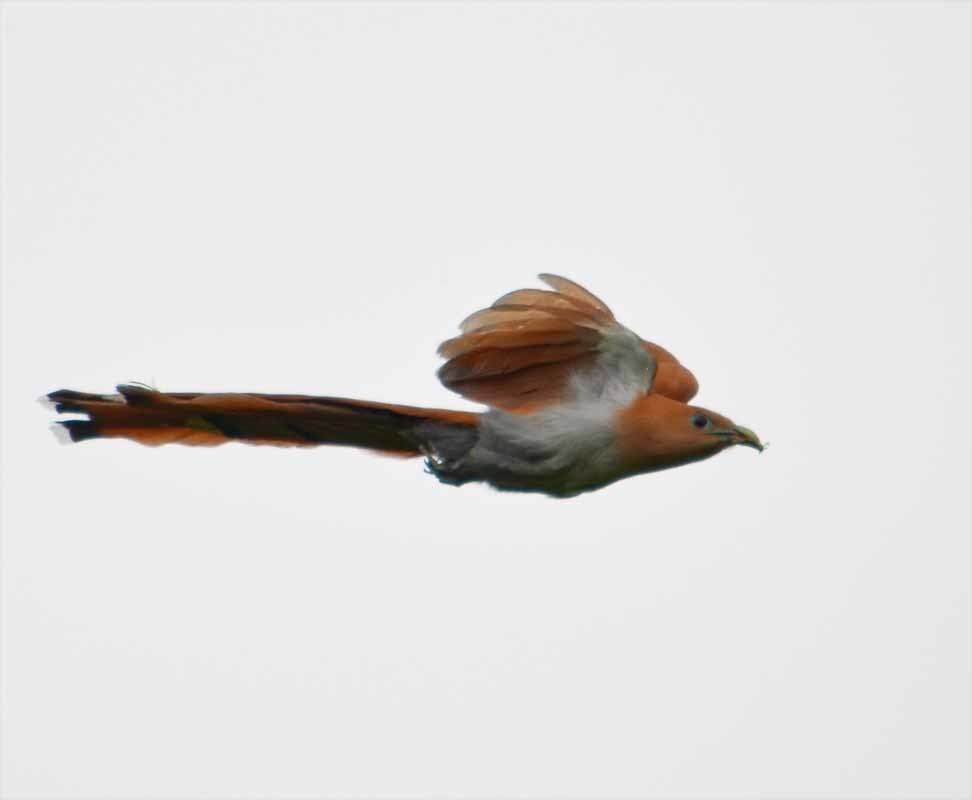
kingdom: Animalia
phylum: Chordata
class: Aves
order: Cuculiformes
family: Cuculidae
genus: Piaya
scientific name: Piaya cayana
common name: Squirrel cuckoo
